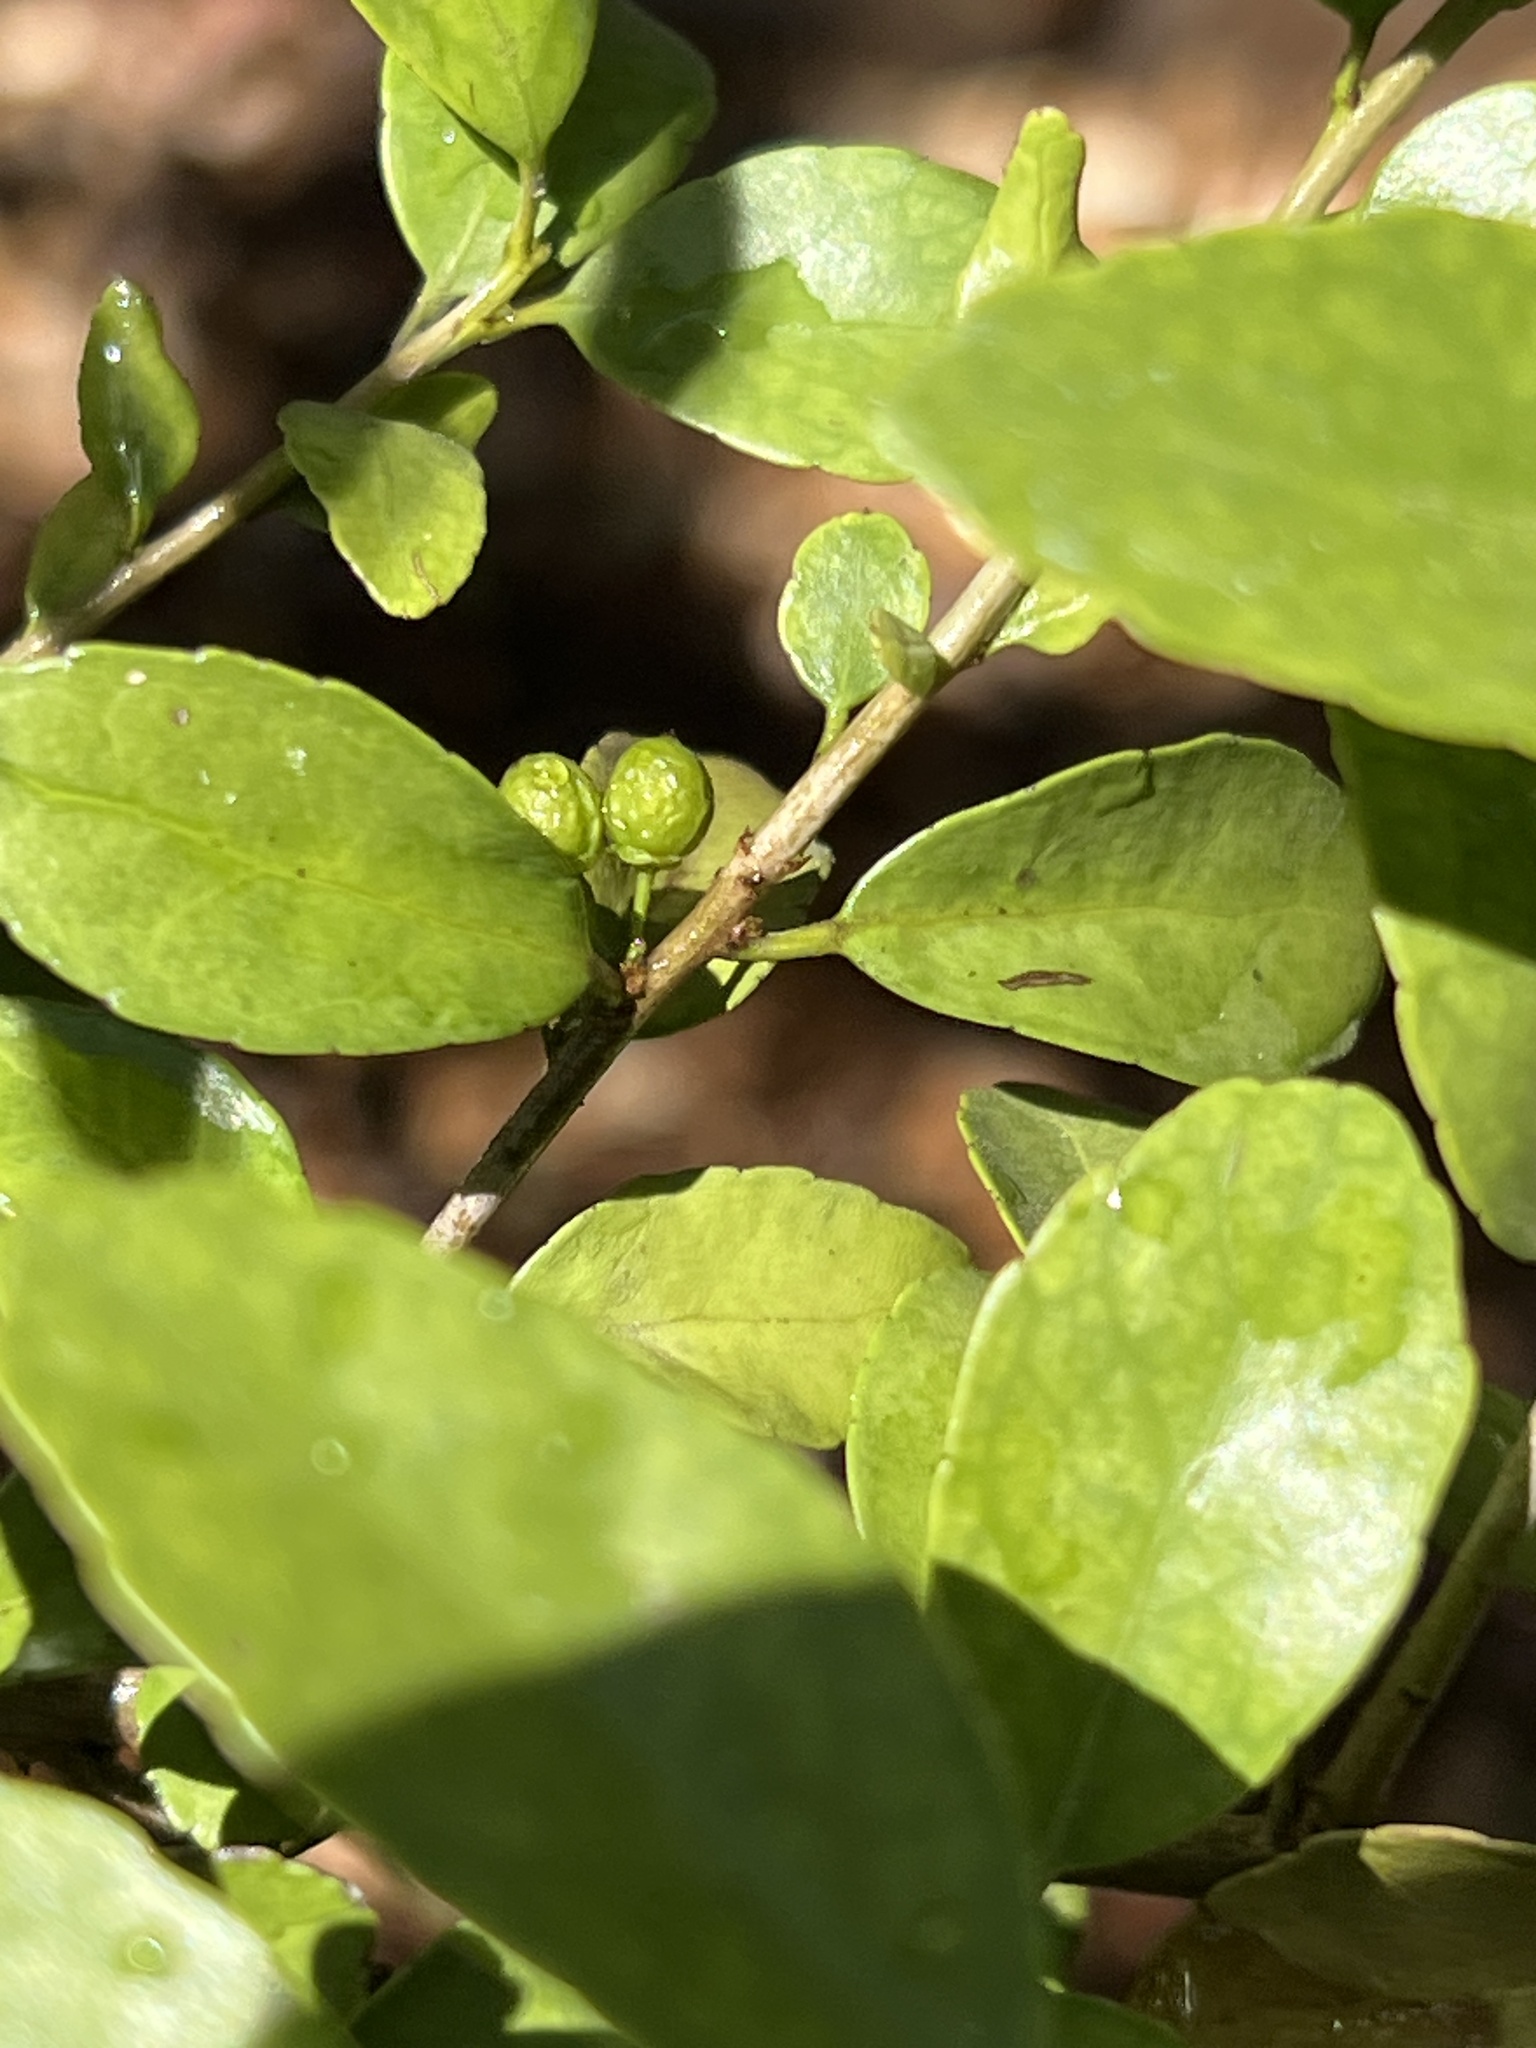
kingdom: Plantae
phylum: Tracheophyta
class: Magnoliopsida
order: Aquifoliales
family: Aquifoliaceae
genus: Ilex
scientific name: Ilex vomitoria
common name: Yaupon holly
